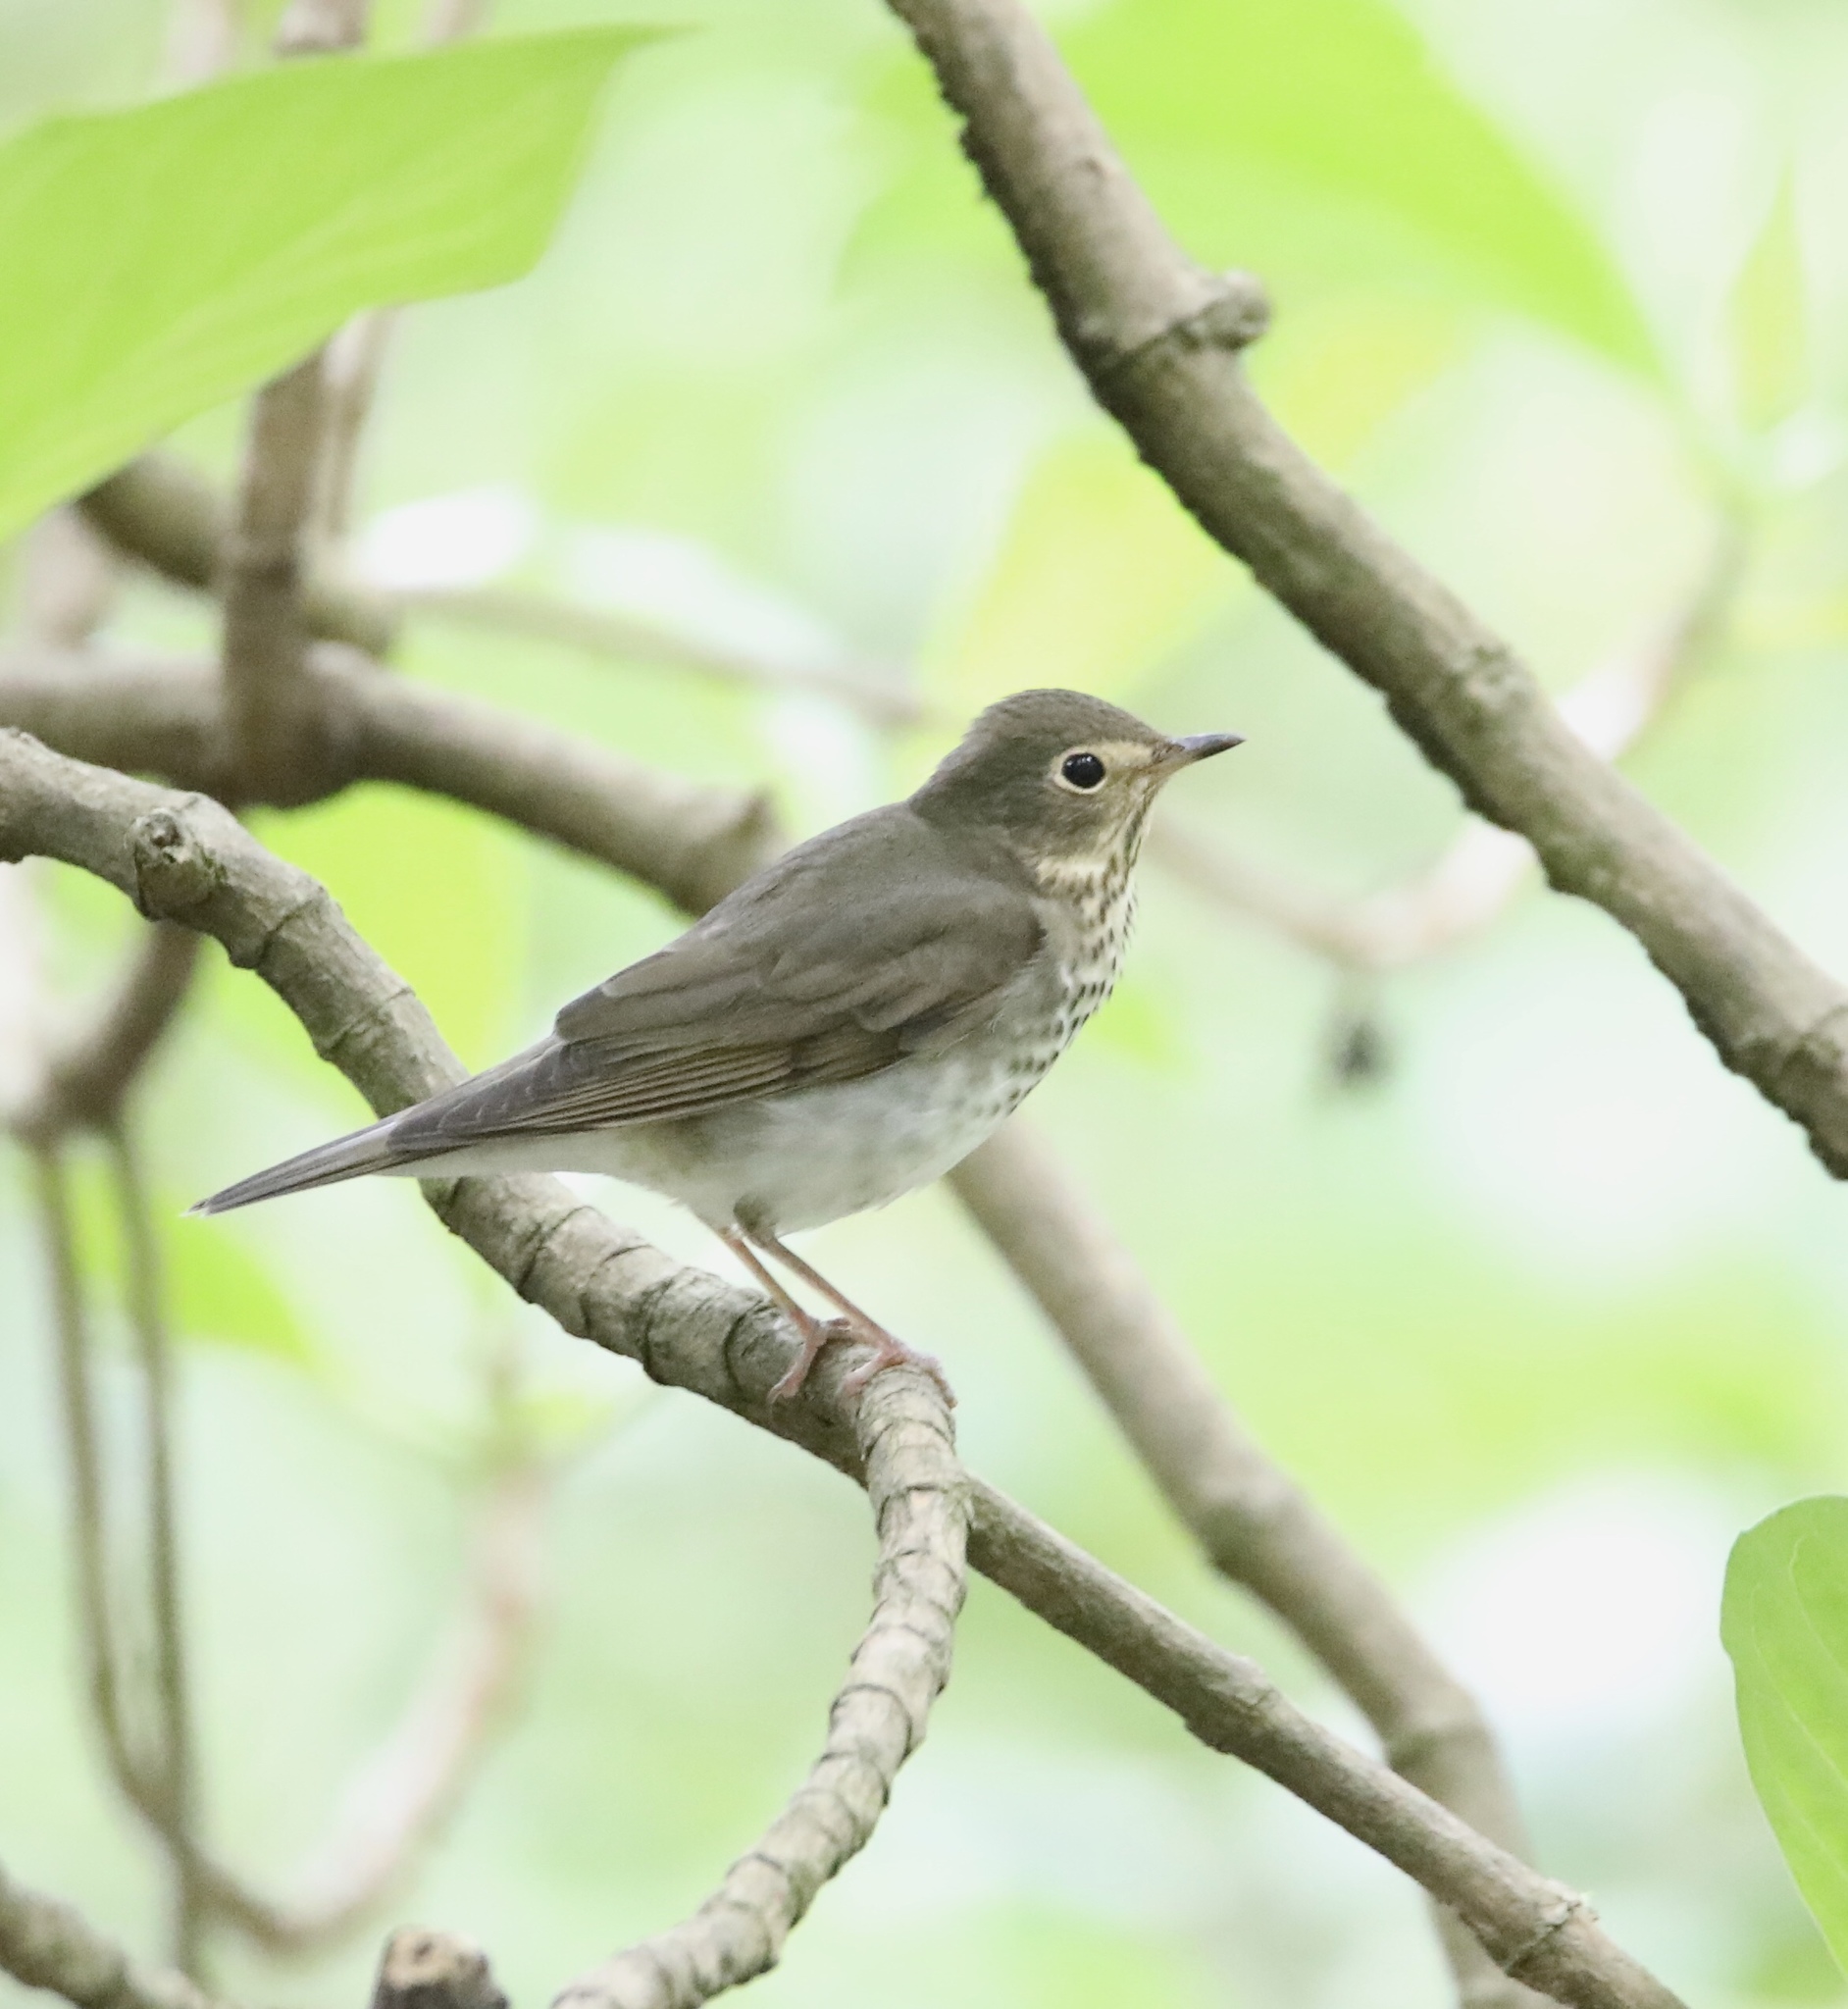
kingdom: Animalia
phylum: Chordata
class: Aves
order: Passeriformes
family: Turdidae
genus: Catharus
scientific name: Catharus ustulatus
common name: Swainson's thrush
